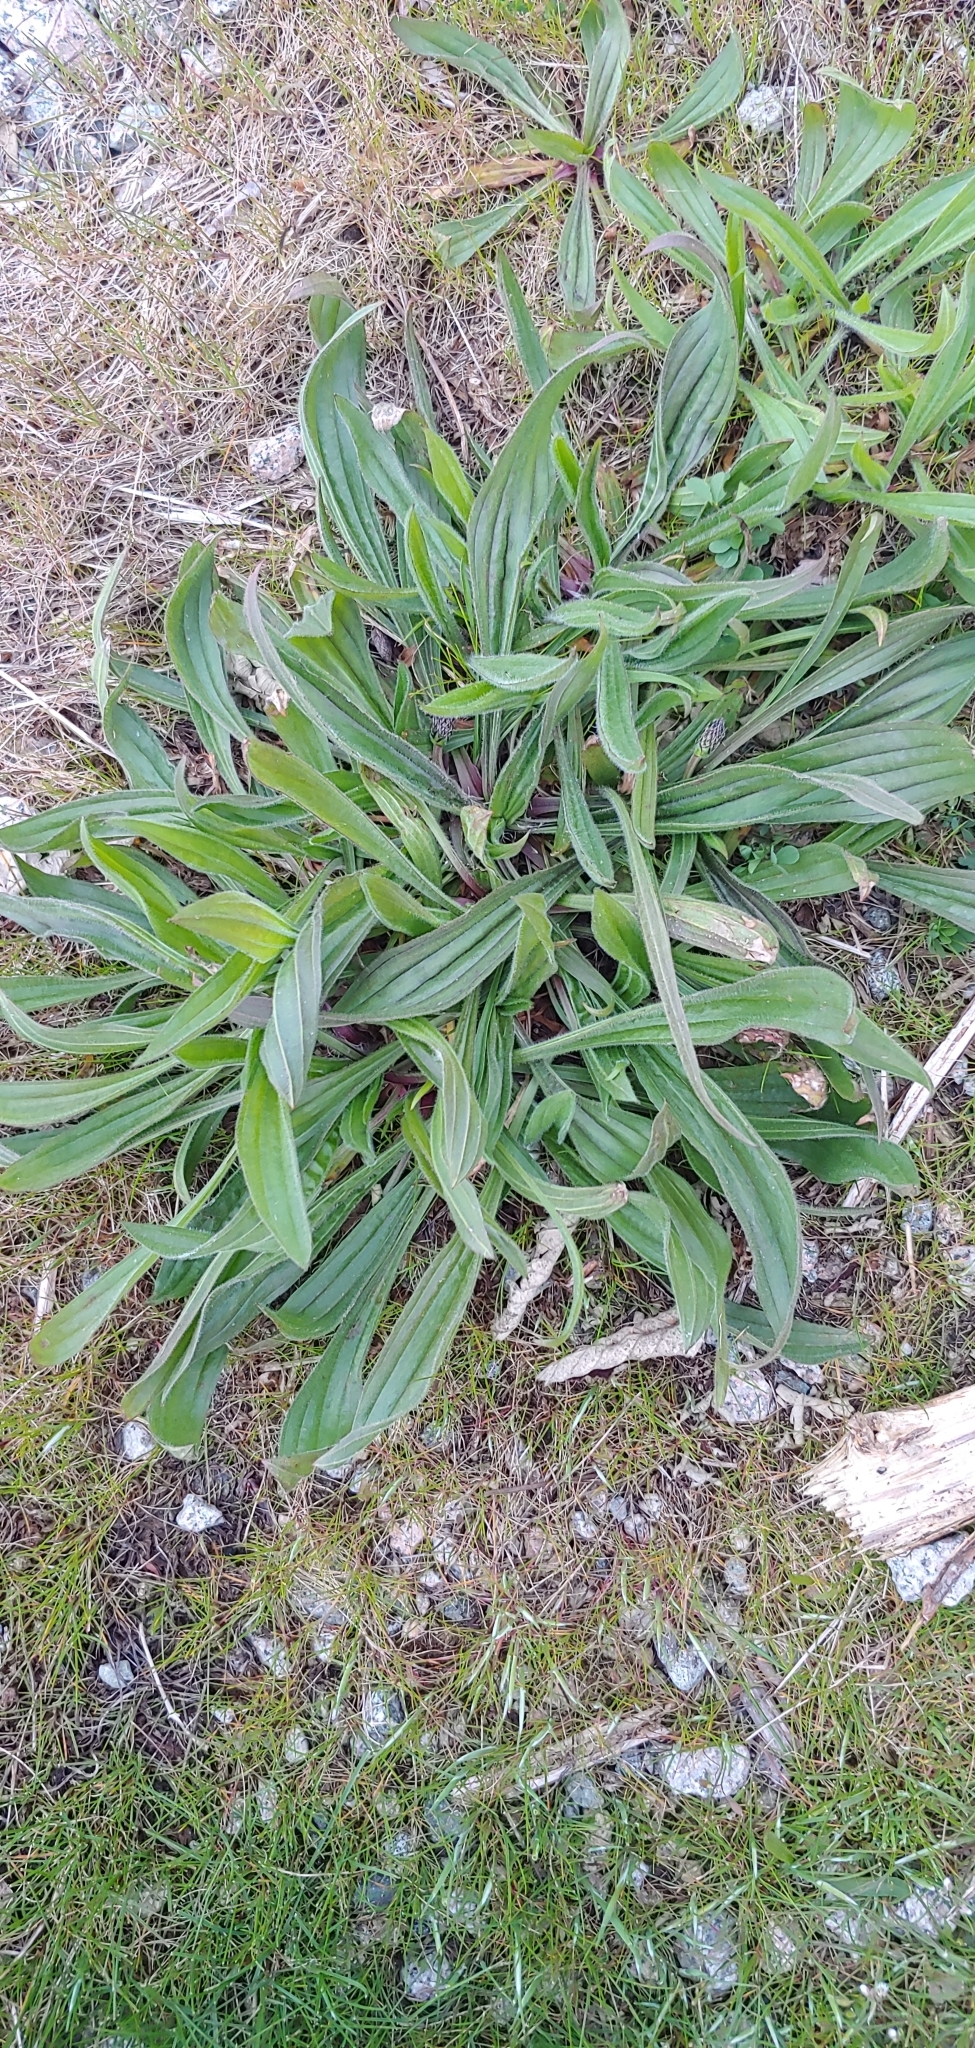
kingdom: Plantae
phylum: Tracheophyta
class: Magnoliopsida
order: Lamiales
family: Plantaginaceae
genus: Plantago
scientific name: Plantago lanceolata
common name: Ribwort plantain
